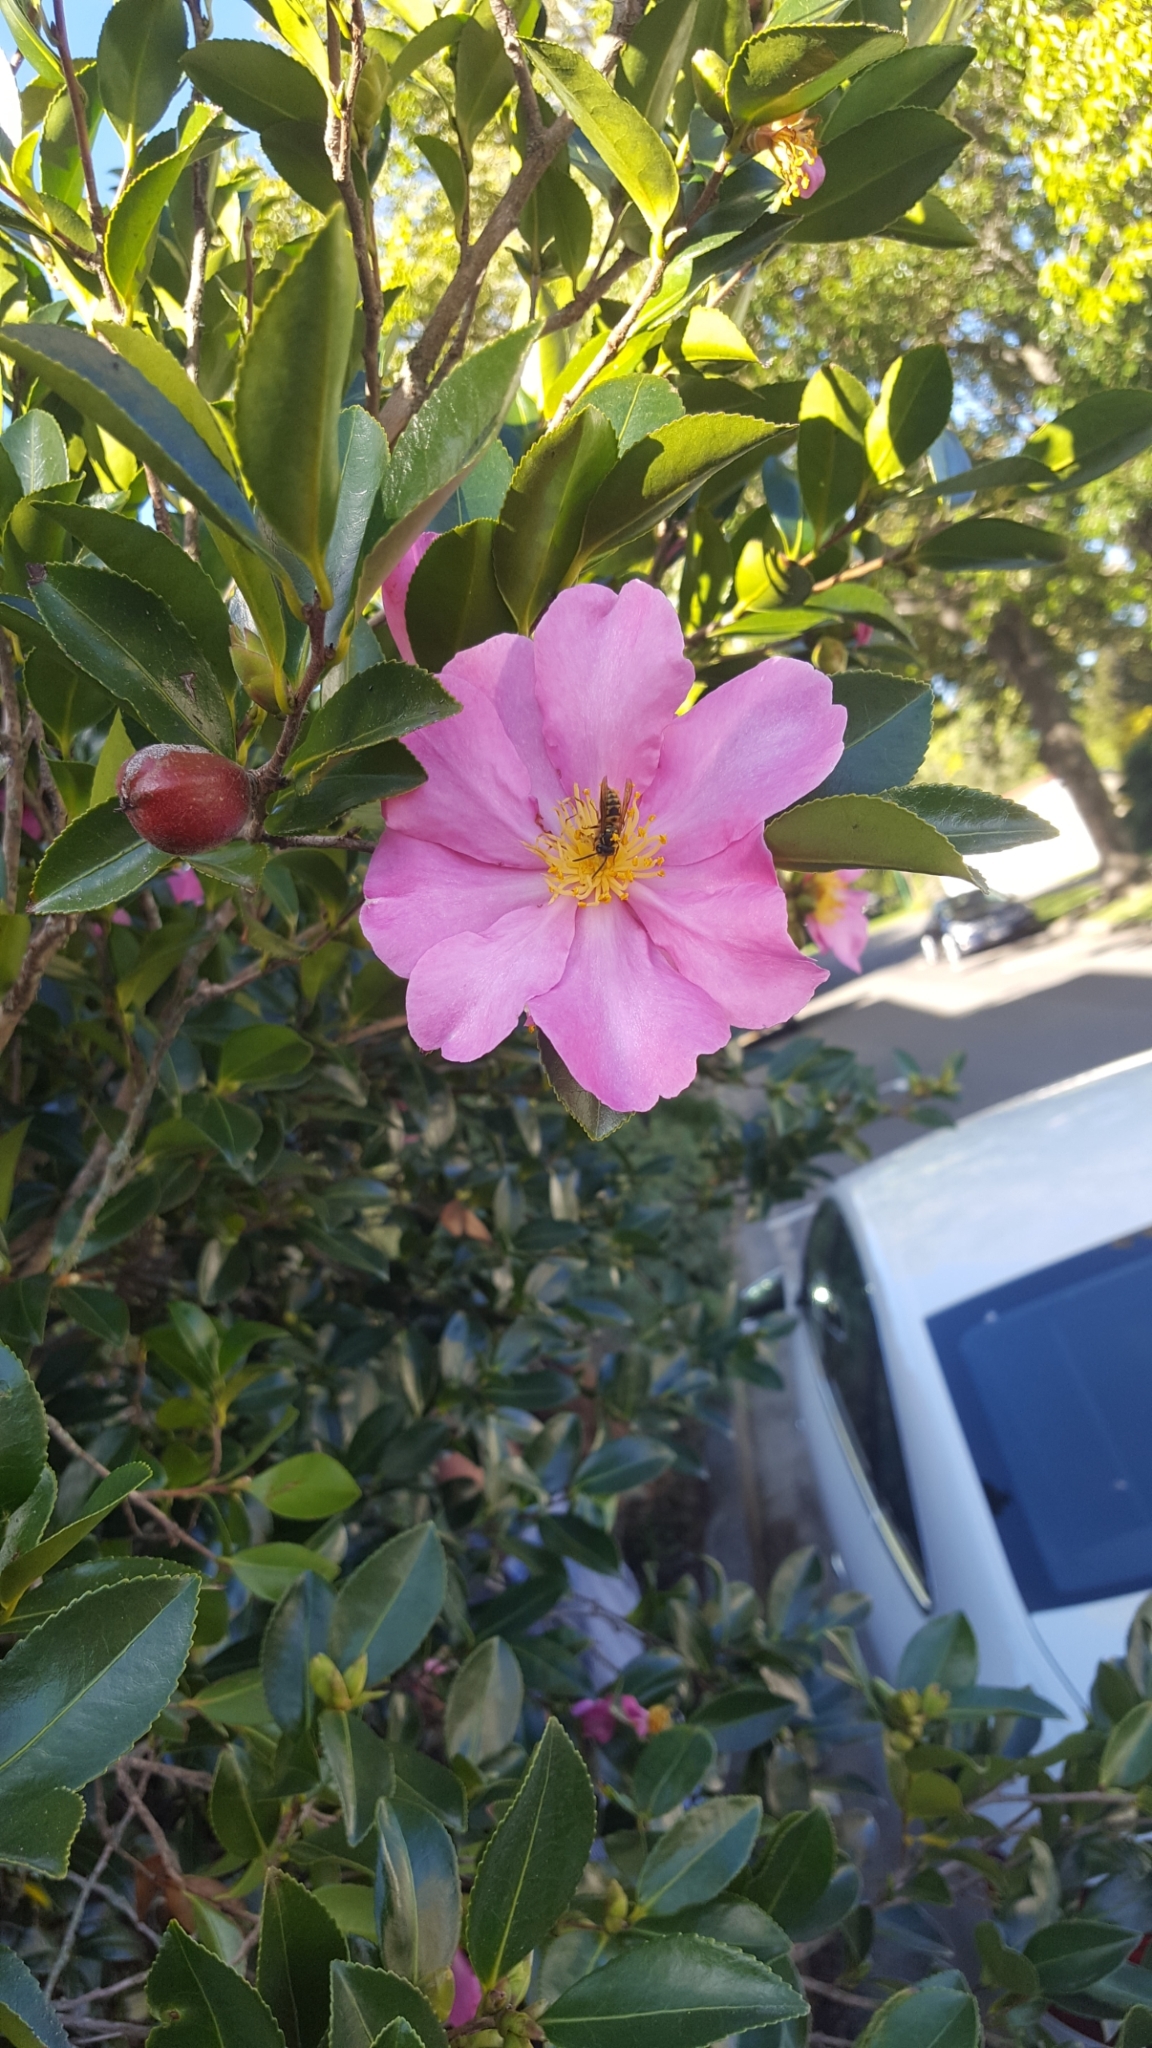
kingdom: Animalia
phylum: Arthropoda
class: Insecta
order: Hymenoptera
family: Vespidae
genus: Vespula
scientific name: Vespula
